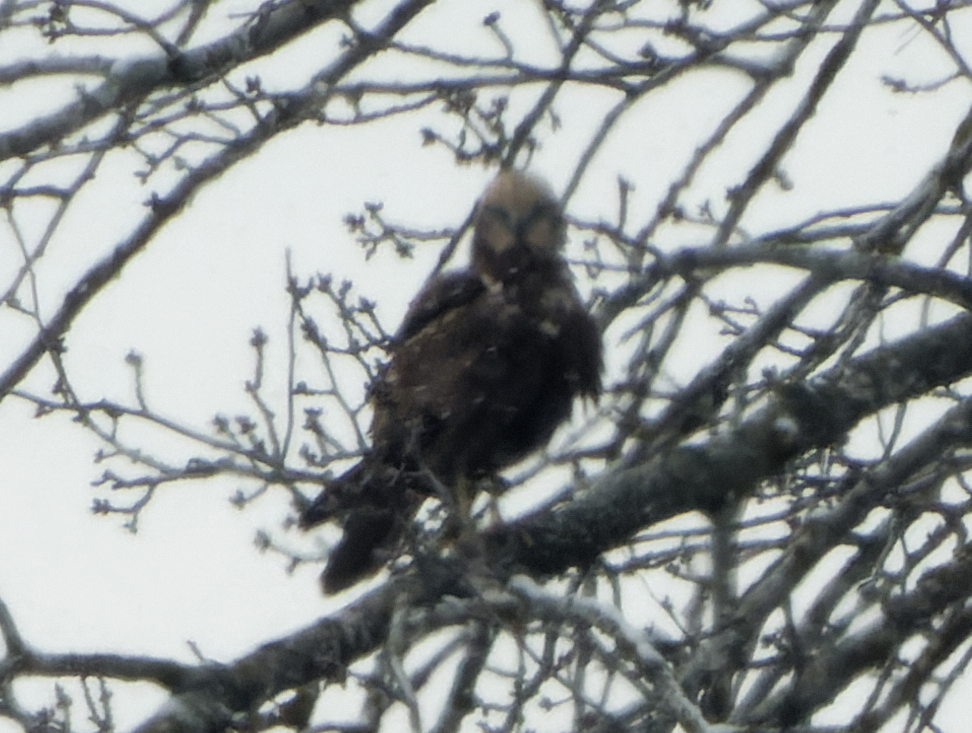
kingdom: Animalia
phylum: Chordata
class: Aves
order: Accipitriformes
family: Accipitridae
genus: Circus
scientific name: Circus aeruginosus
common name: Western marsh harrier
